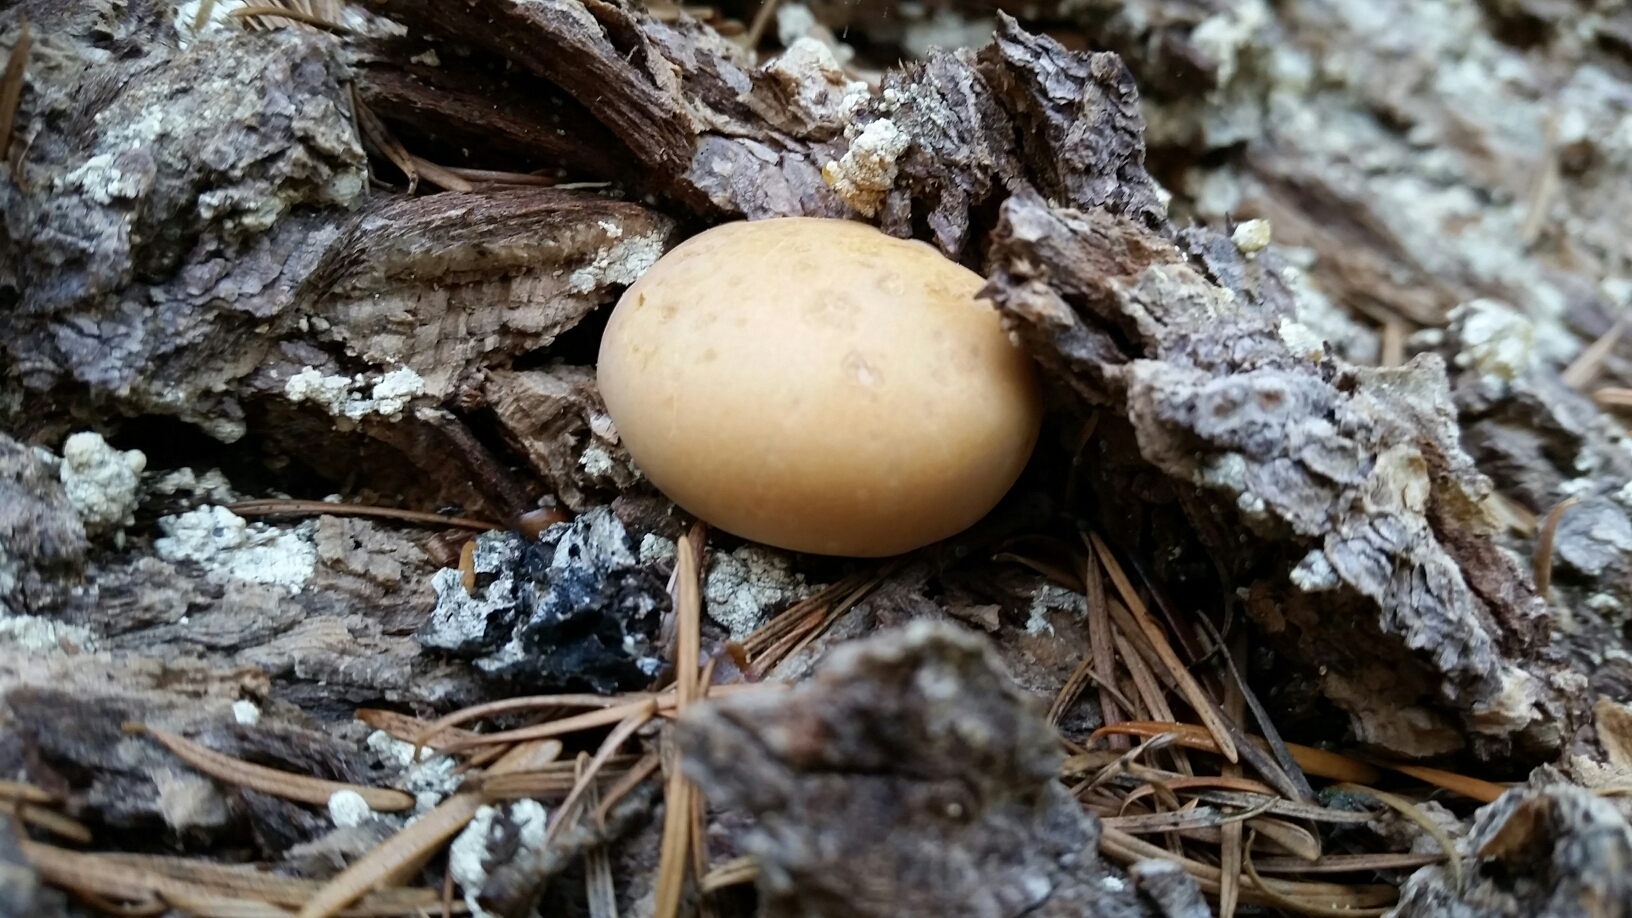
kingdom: Fungi
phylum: Basidiomycota
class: Agaricomycetes
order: Polyporales
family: Polyporaceae
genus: Cryptoporus
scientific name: Cryptoporus volvatus
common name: Veiled polypore
